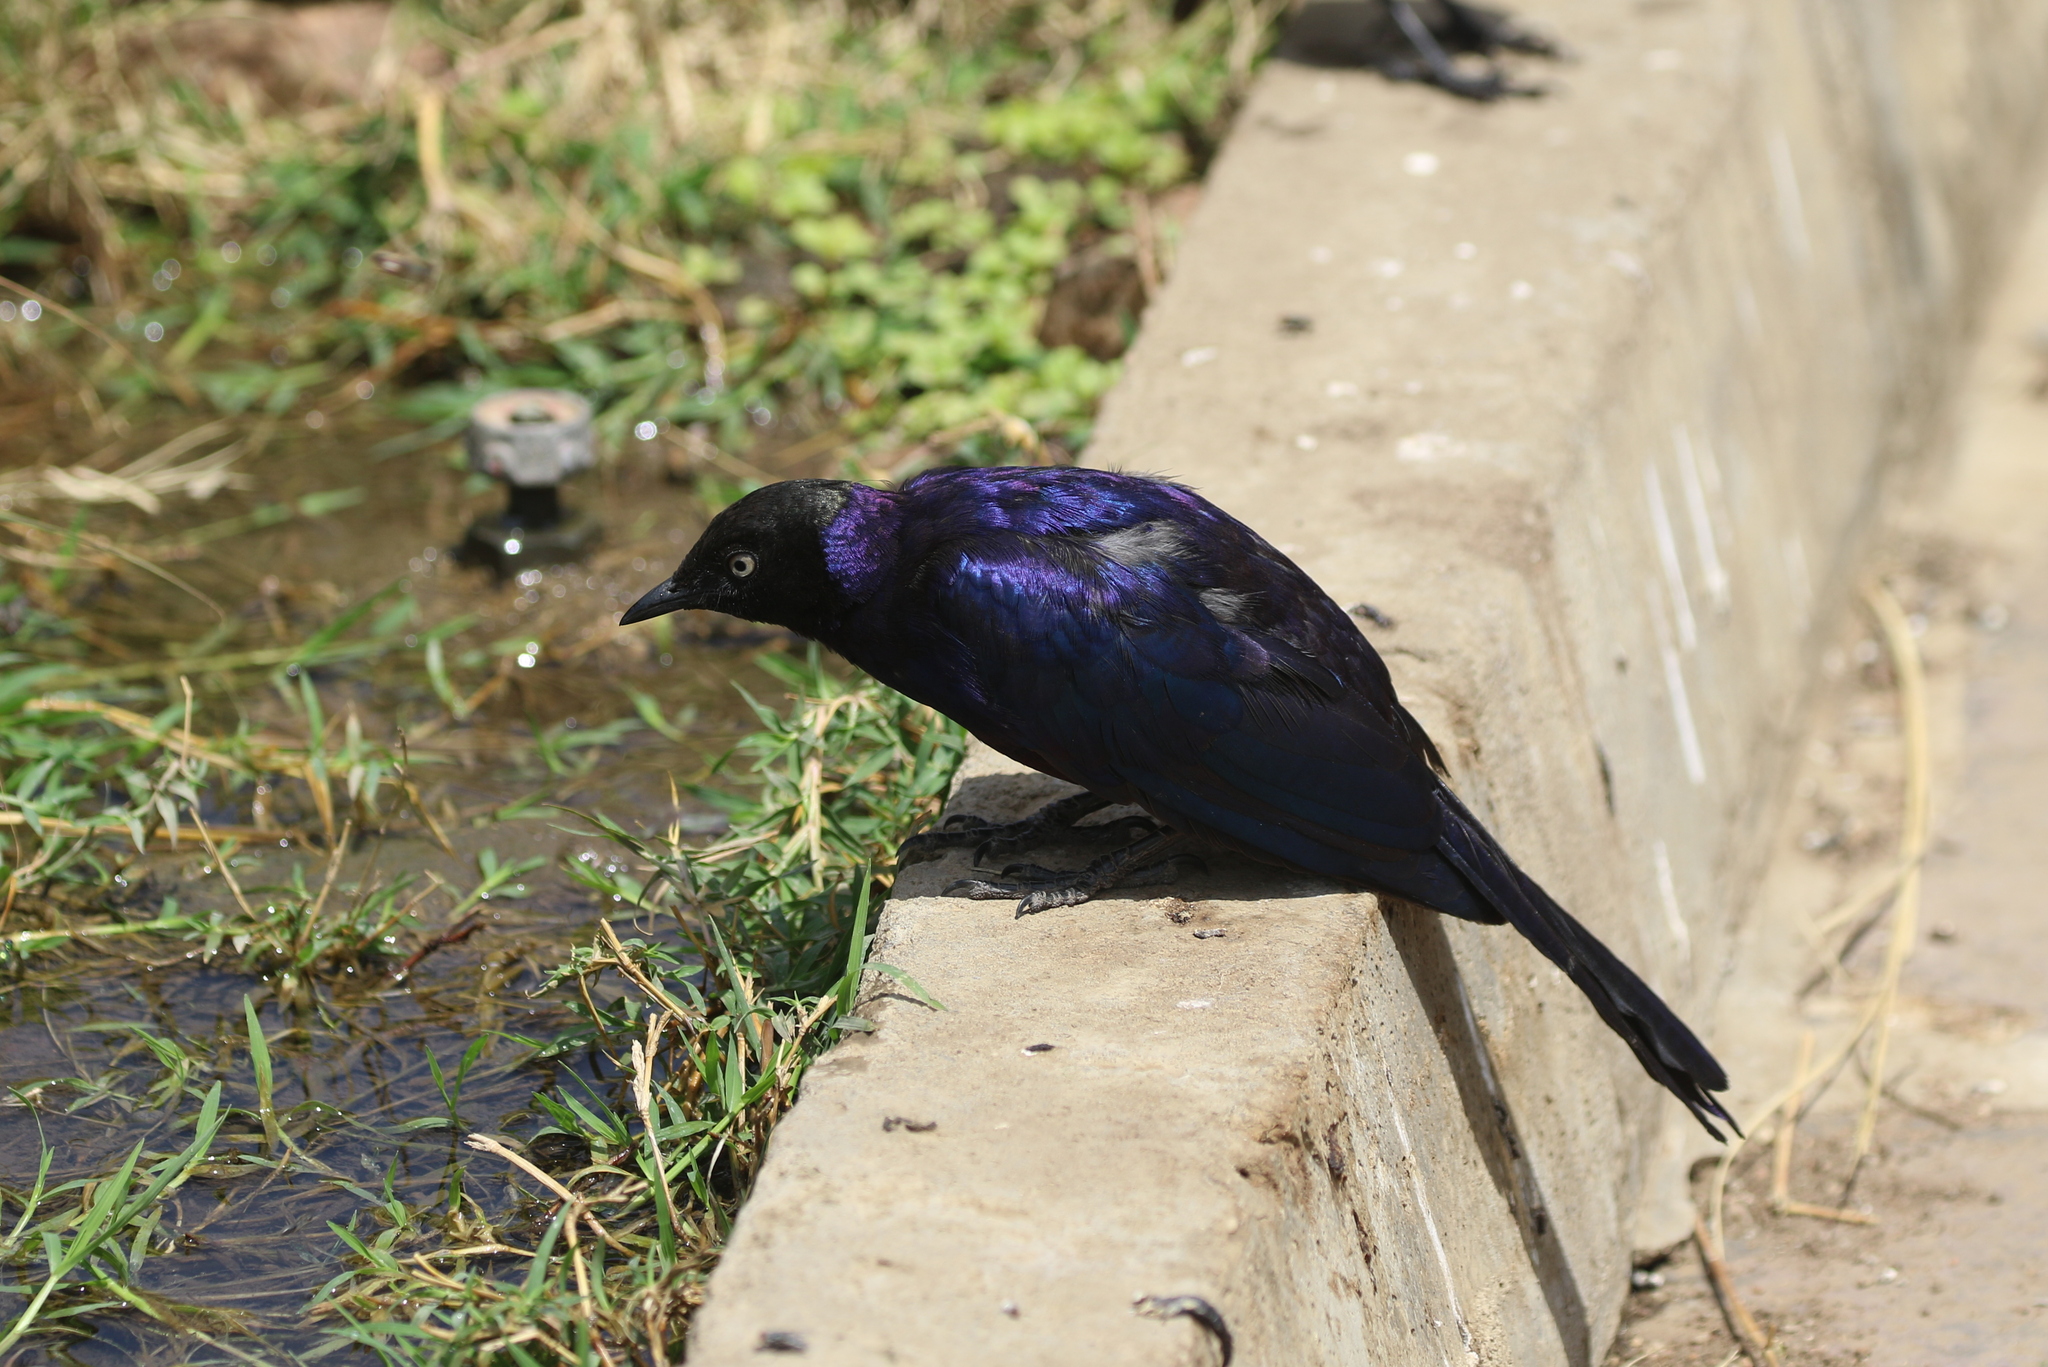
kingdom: Animalia
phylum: Chordata
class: Aves
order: Passeriformes
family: Sturnidae
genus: Lamprotornis
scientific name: Lamprotornis purpuroptera
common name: Rüppell's starling
